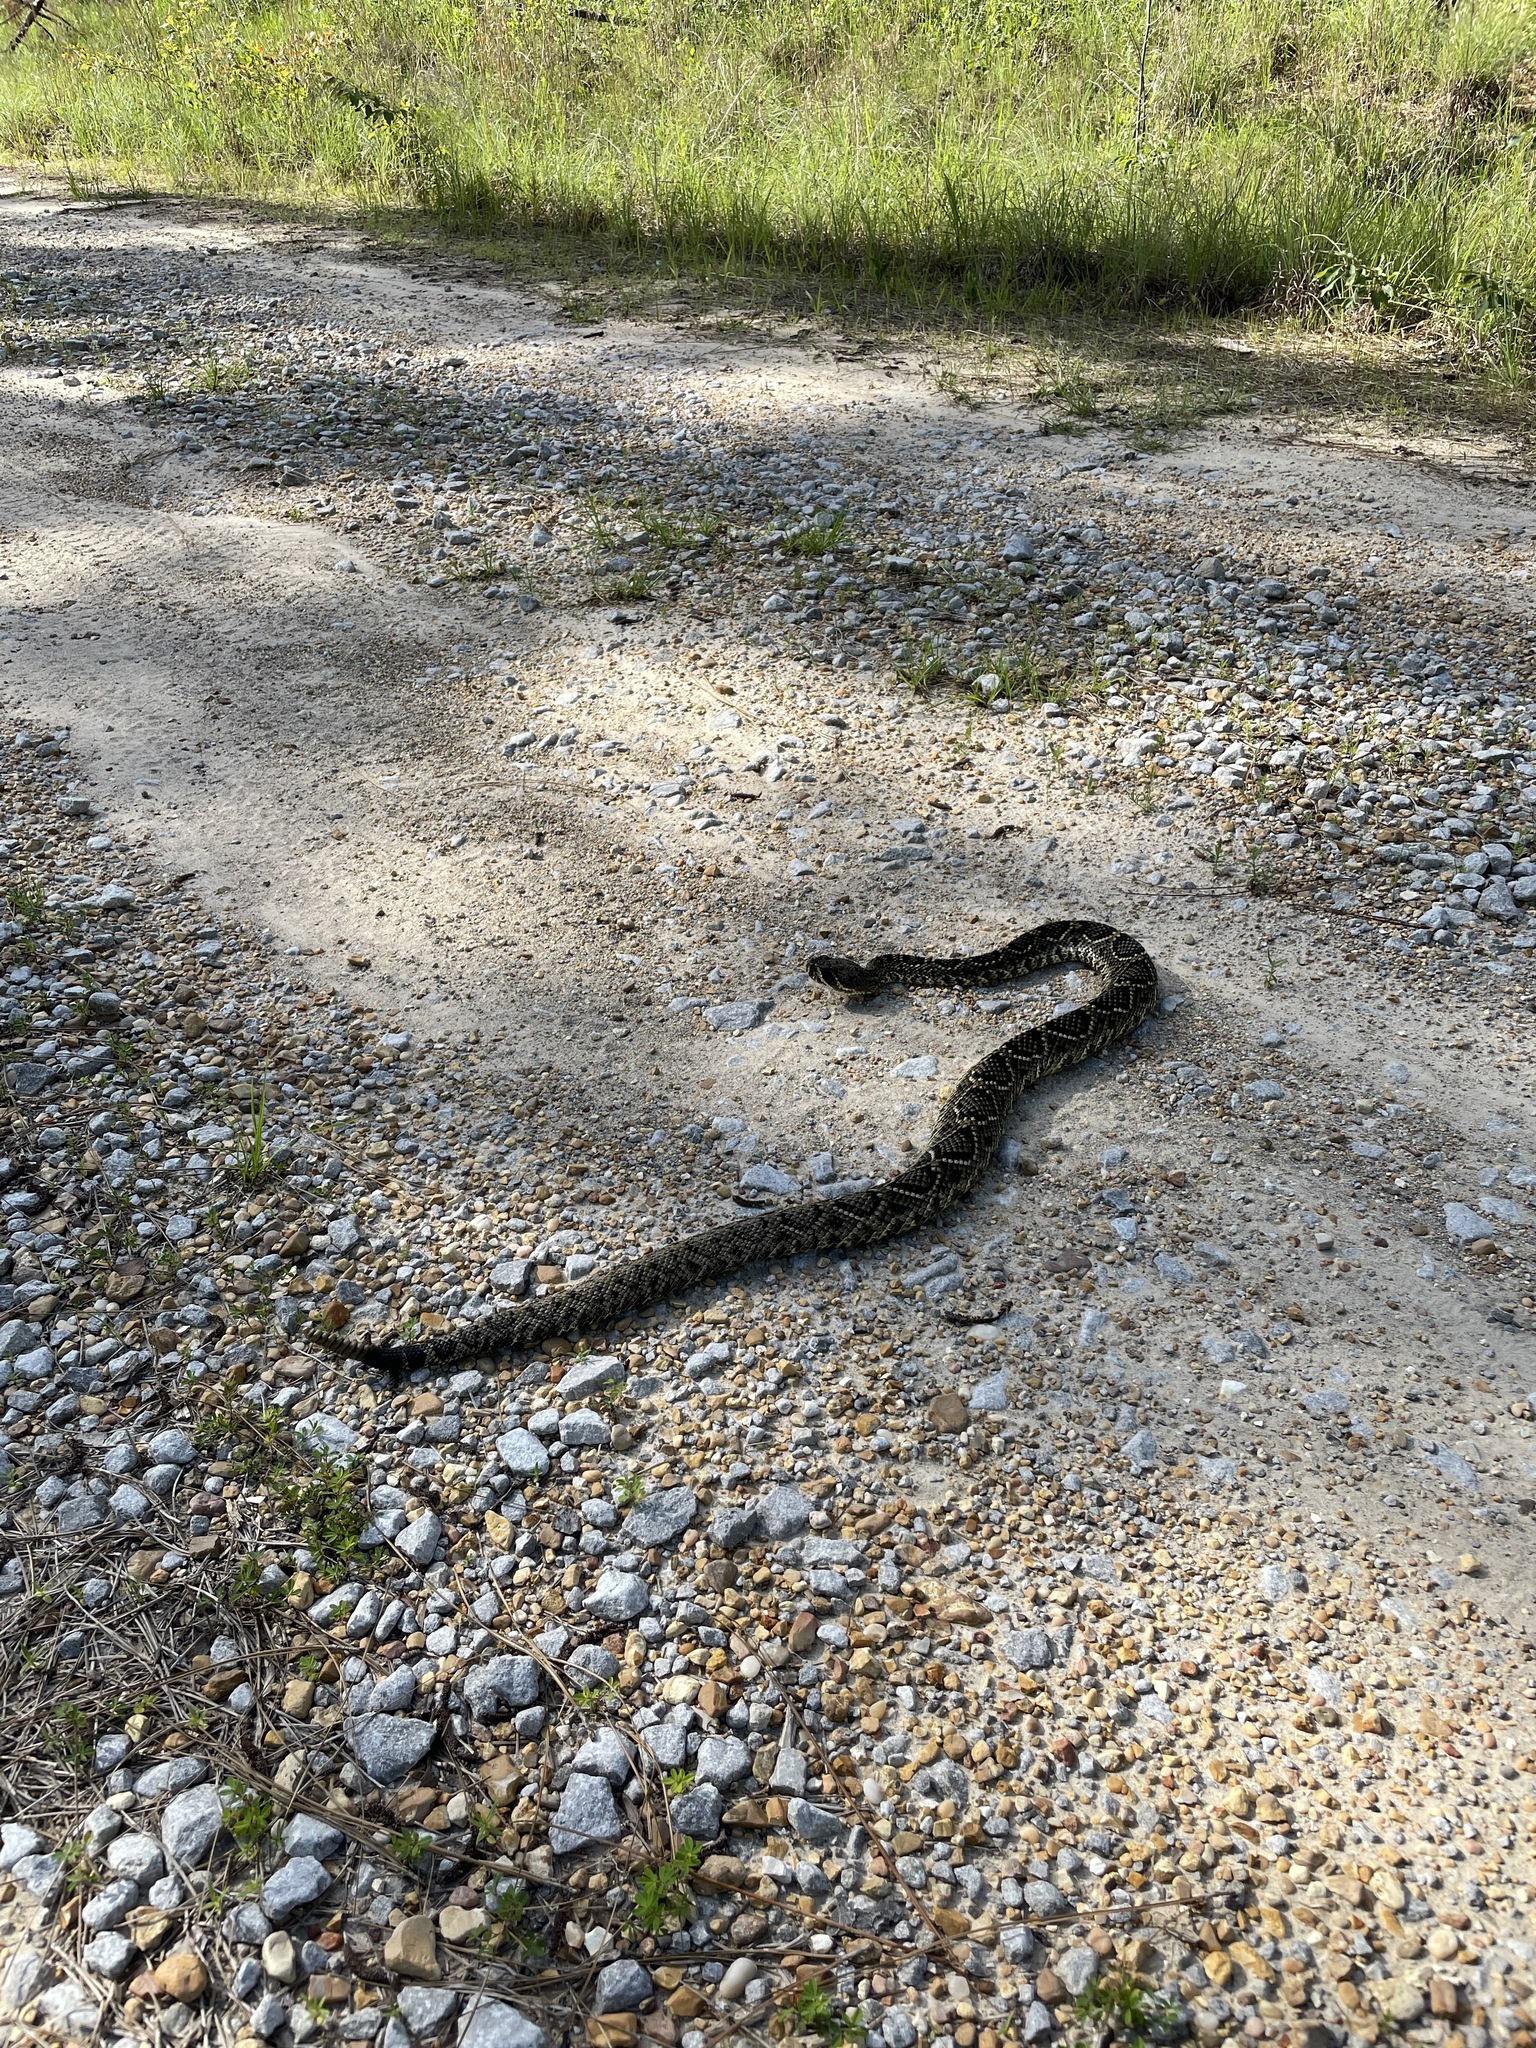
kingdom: Animalia
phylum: Chordata
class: Squamata
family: Viperidae
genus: Crotalus
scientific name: Crotalus adamanteus
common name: Eastern diamondback rattlesnake
